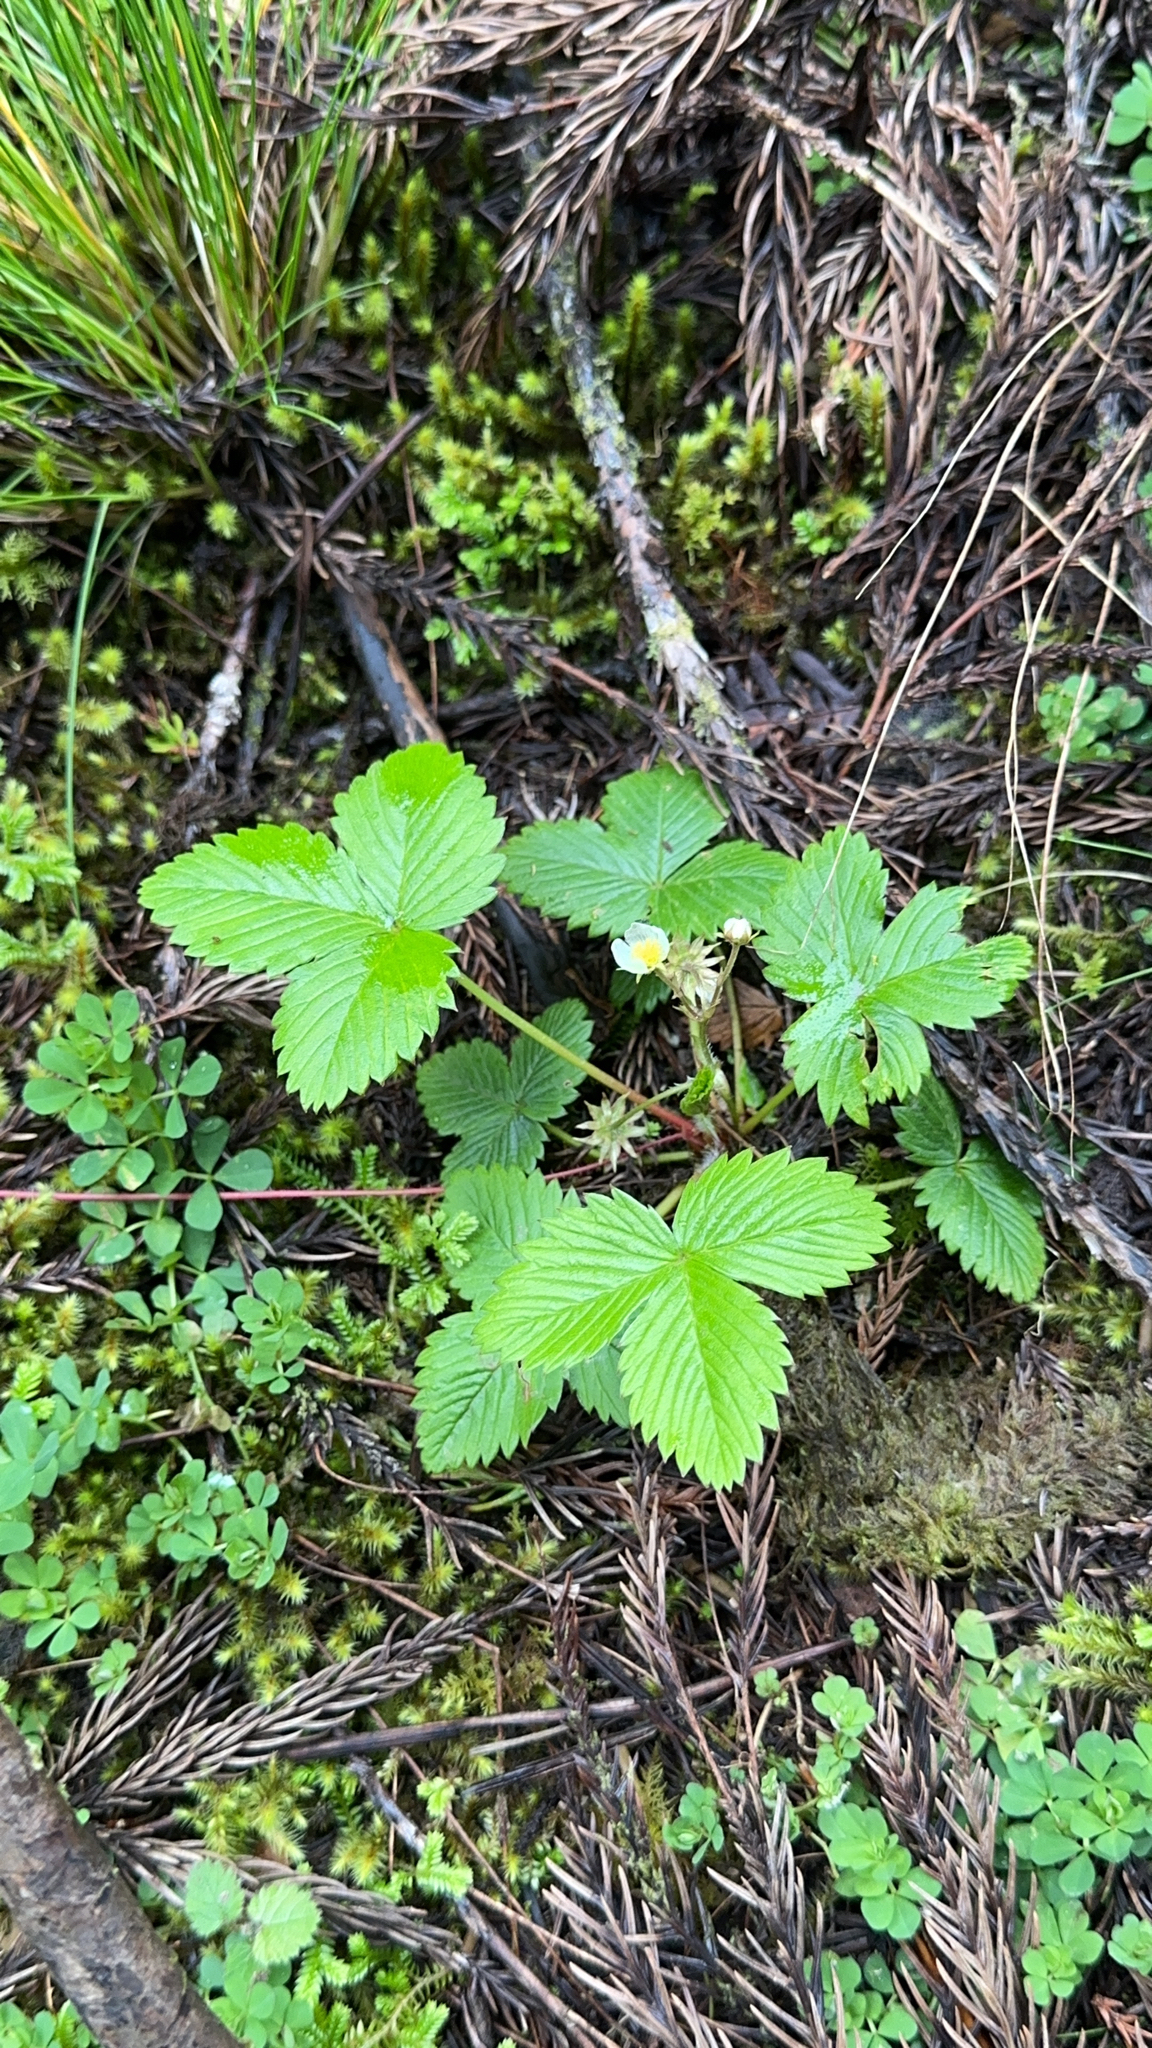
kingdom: Plantae
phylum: Tracheophyta
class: Magnoliopsida
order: Rosales
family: Rosaceae
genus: Fragaria
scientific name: Fragaria vesca
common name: Wild strawberry
